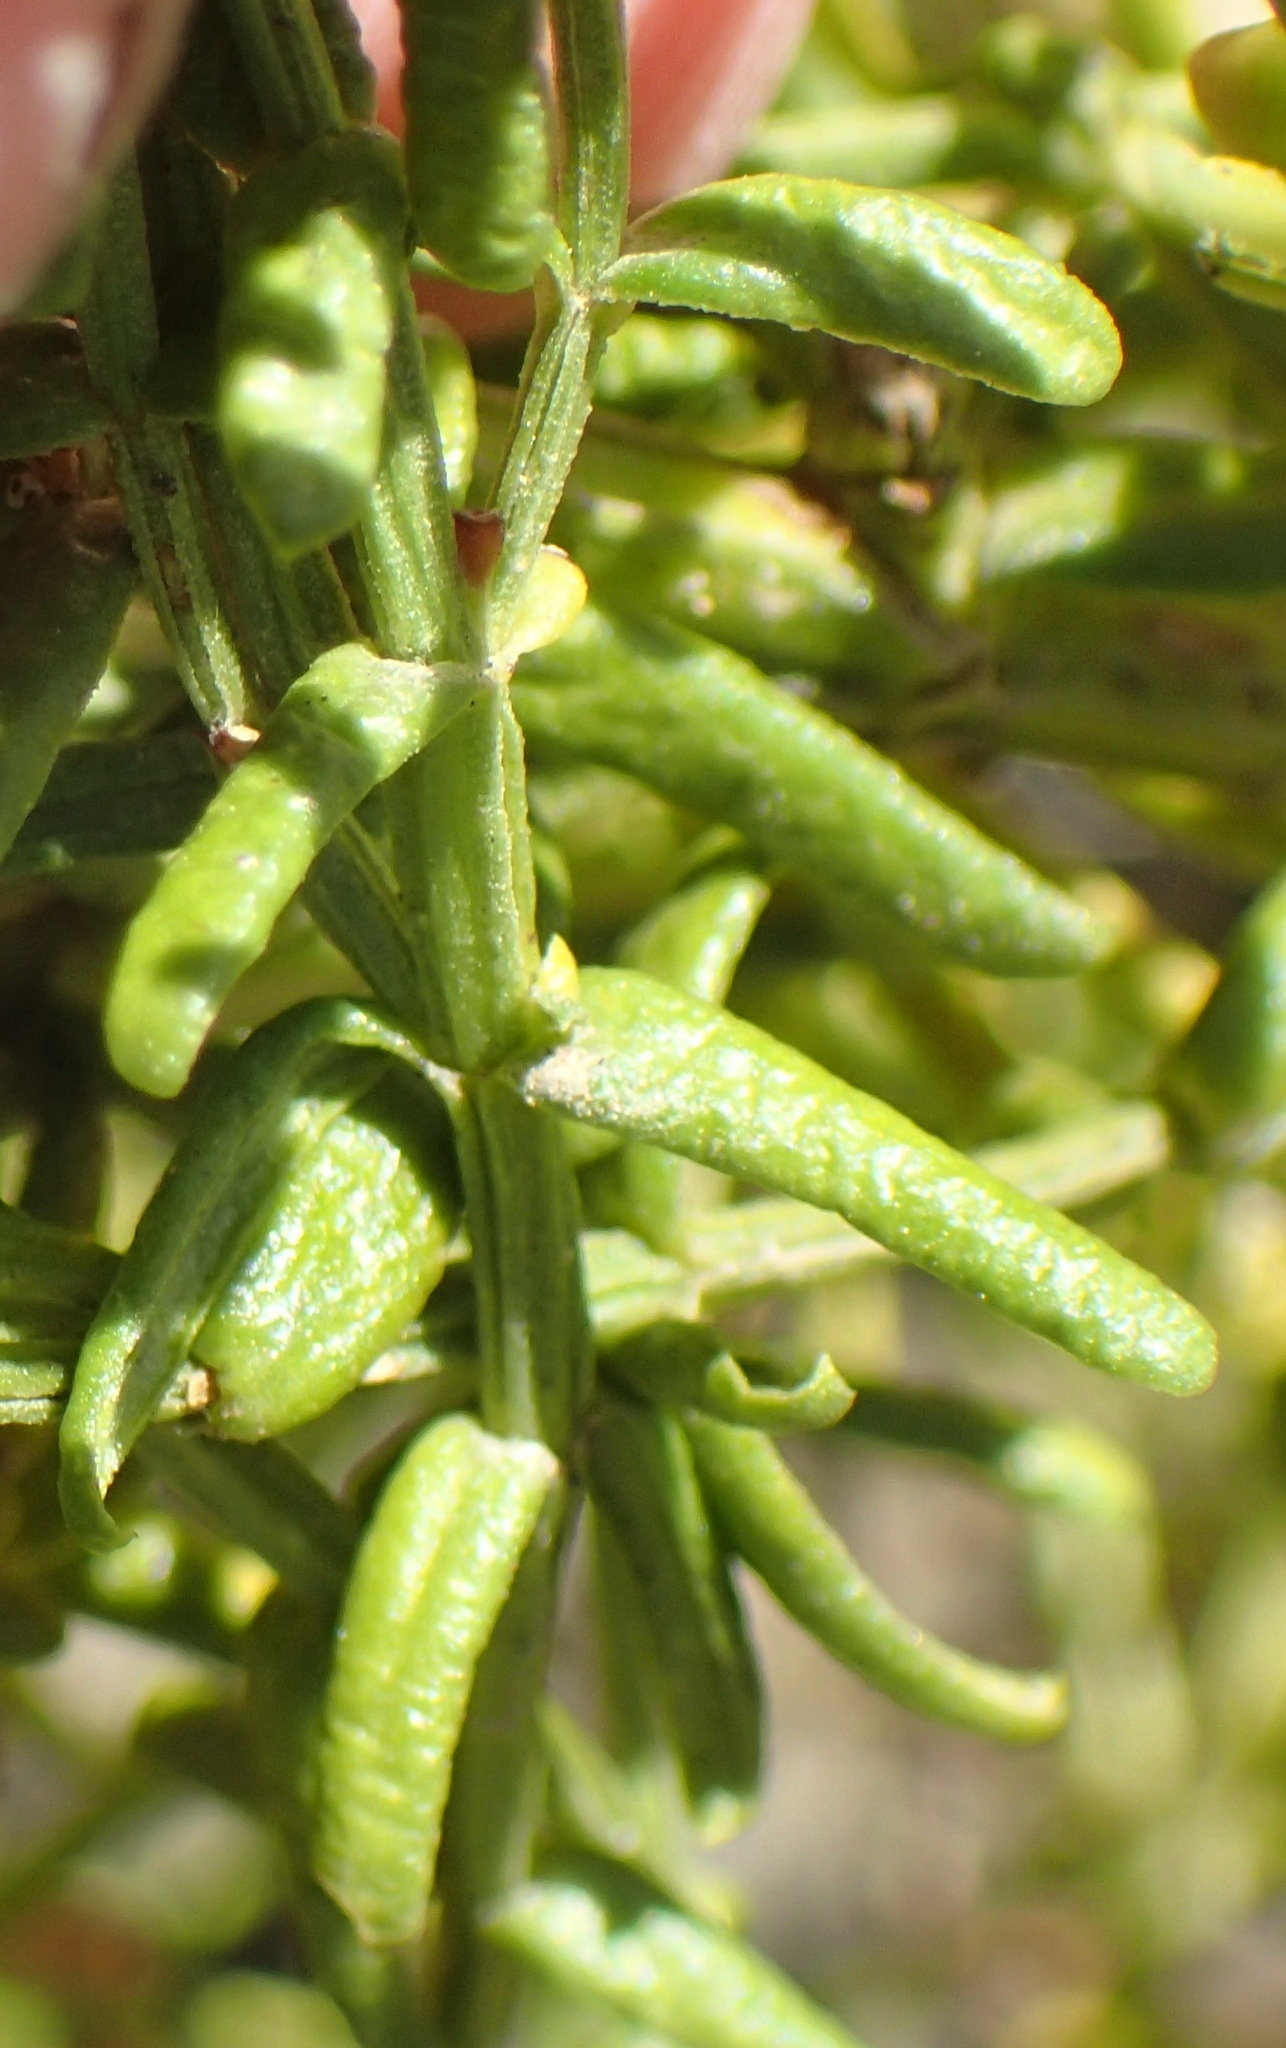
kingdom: Plantae
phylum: Tracheophyta
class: Magnoliopsida
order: Gentianales
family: Gentianaceae
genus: Chironia
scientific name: Chironia baccifera
